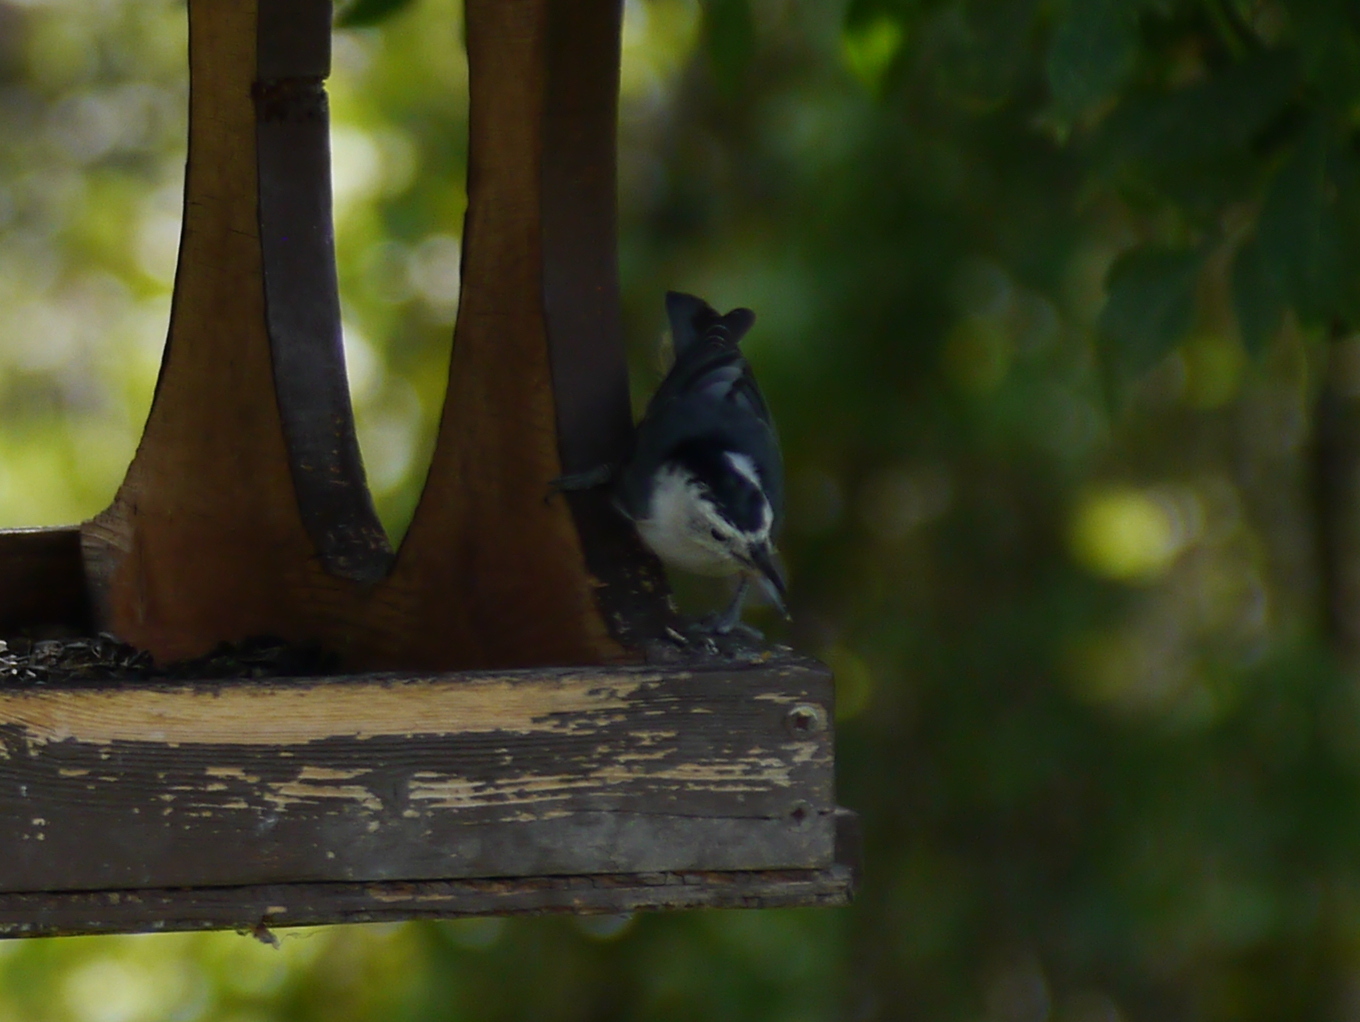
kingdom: Animalia
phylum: Chordata
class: Aves
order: Passeriformes
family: Sittidae
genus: Sitta
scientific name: Sitta carolinensis
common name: White-breasted nuthatch
